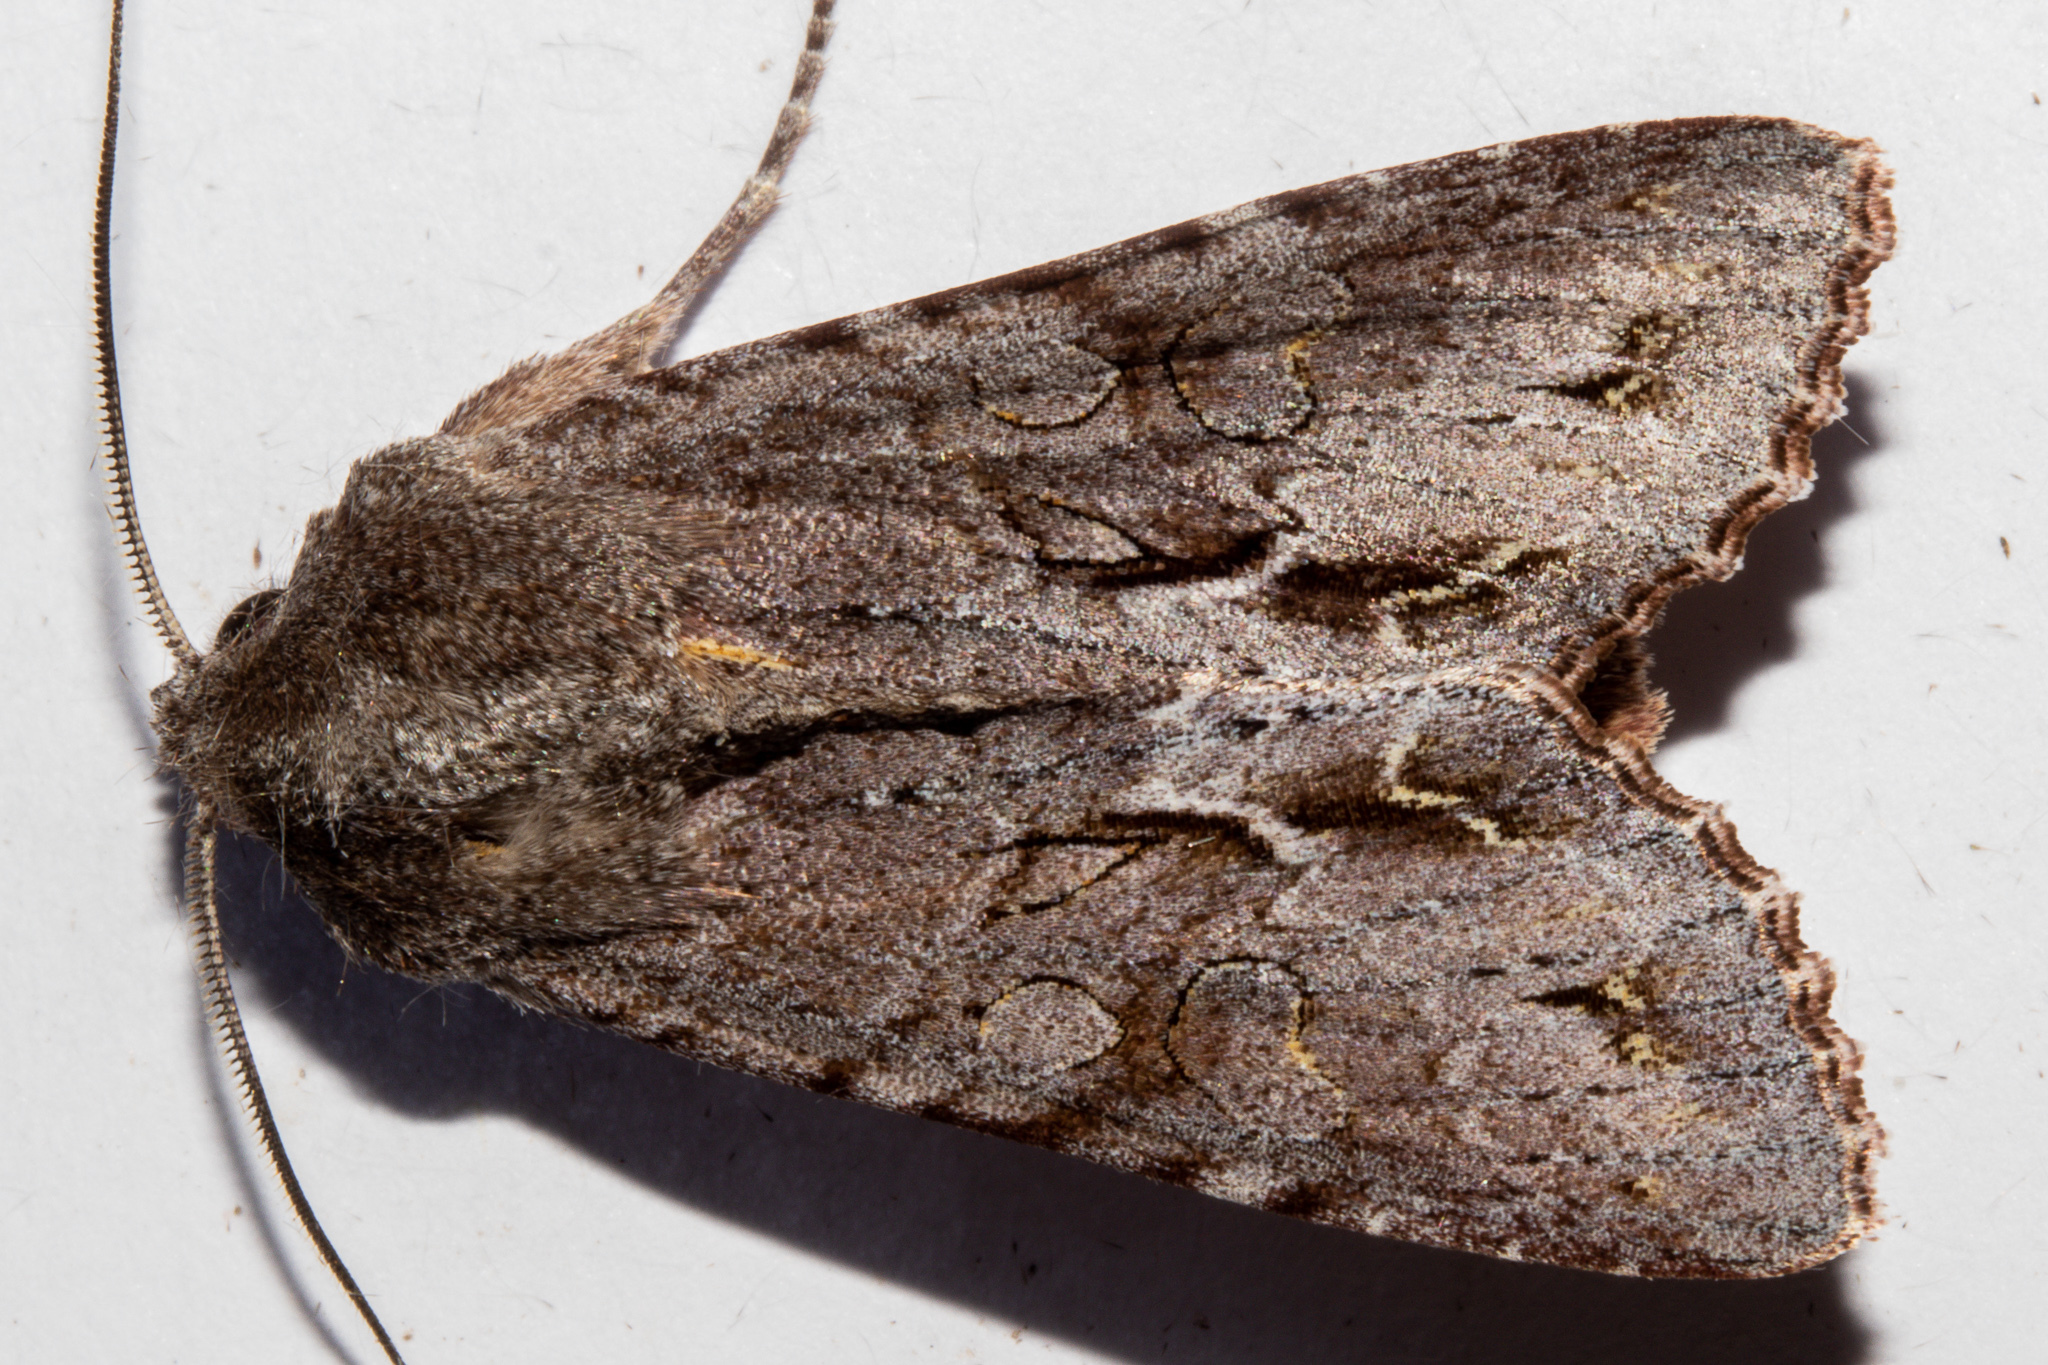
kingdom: Animalia
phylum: Arthropoda
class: Insecta
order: Lepidoptera
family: Noctuidae
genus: Ichneutica
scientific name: Ichneutica
